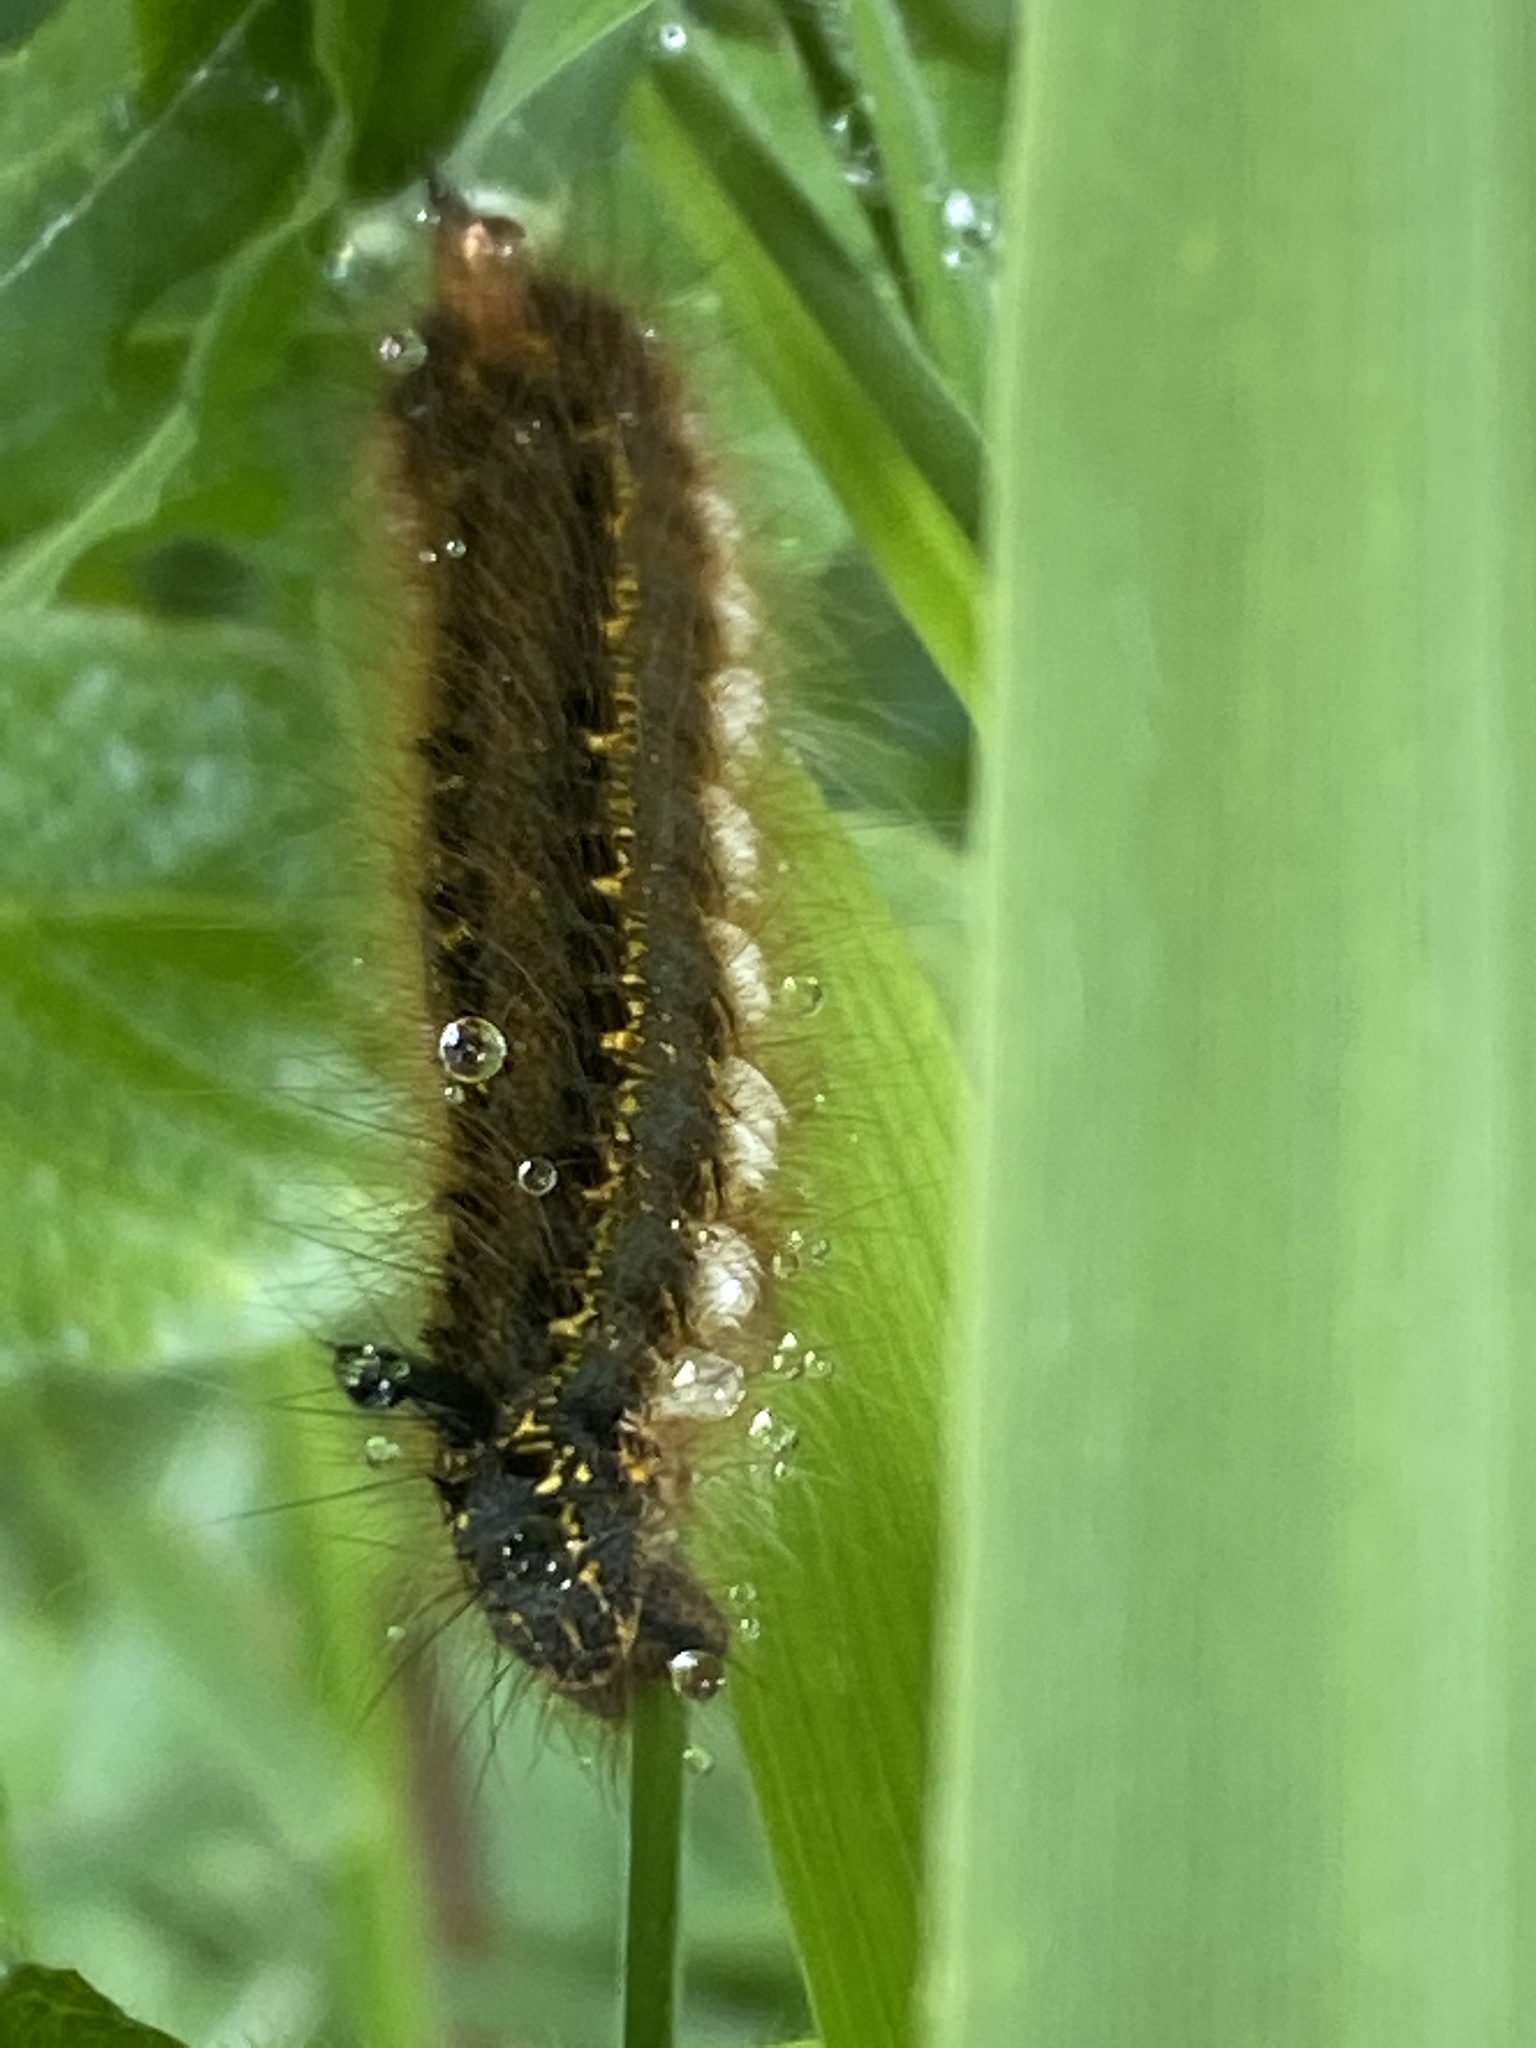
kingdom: Animalia
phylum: Arthropoda
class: Insecta
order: Lepidoptera
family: Lasiocampidae
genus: Euthrix
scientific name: Euthrix potatoria
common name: Drinker
